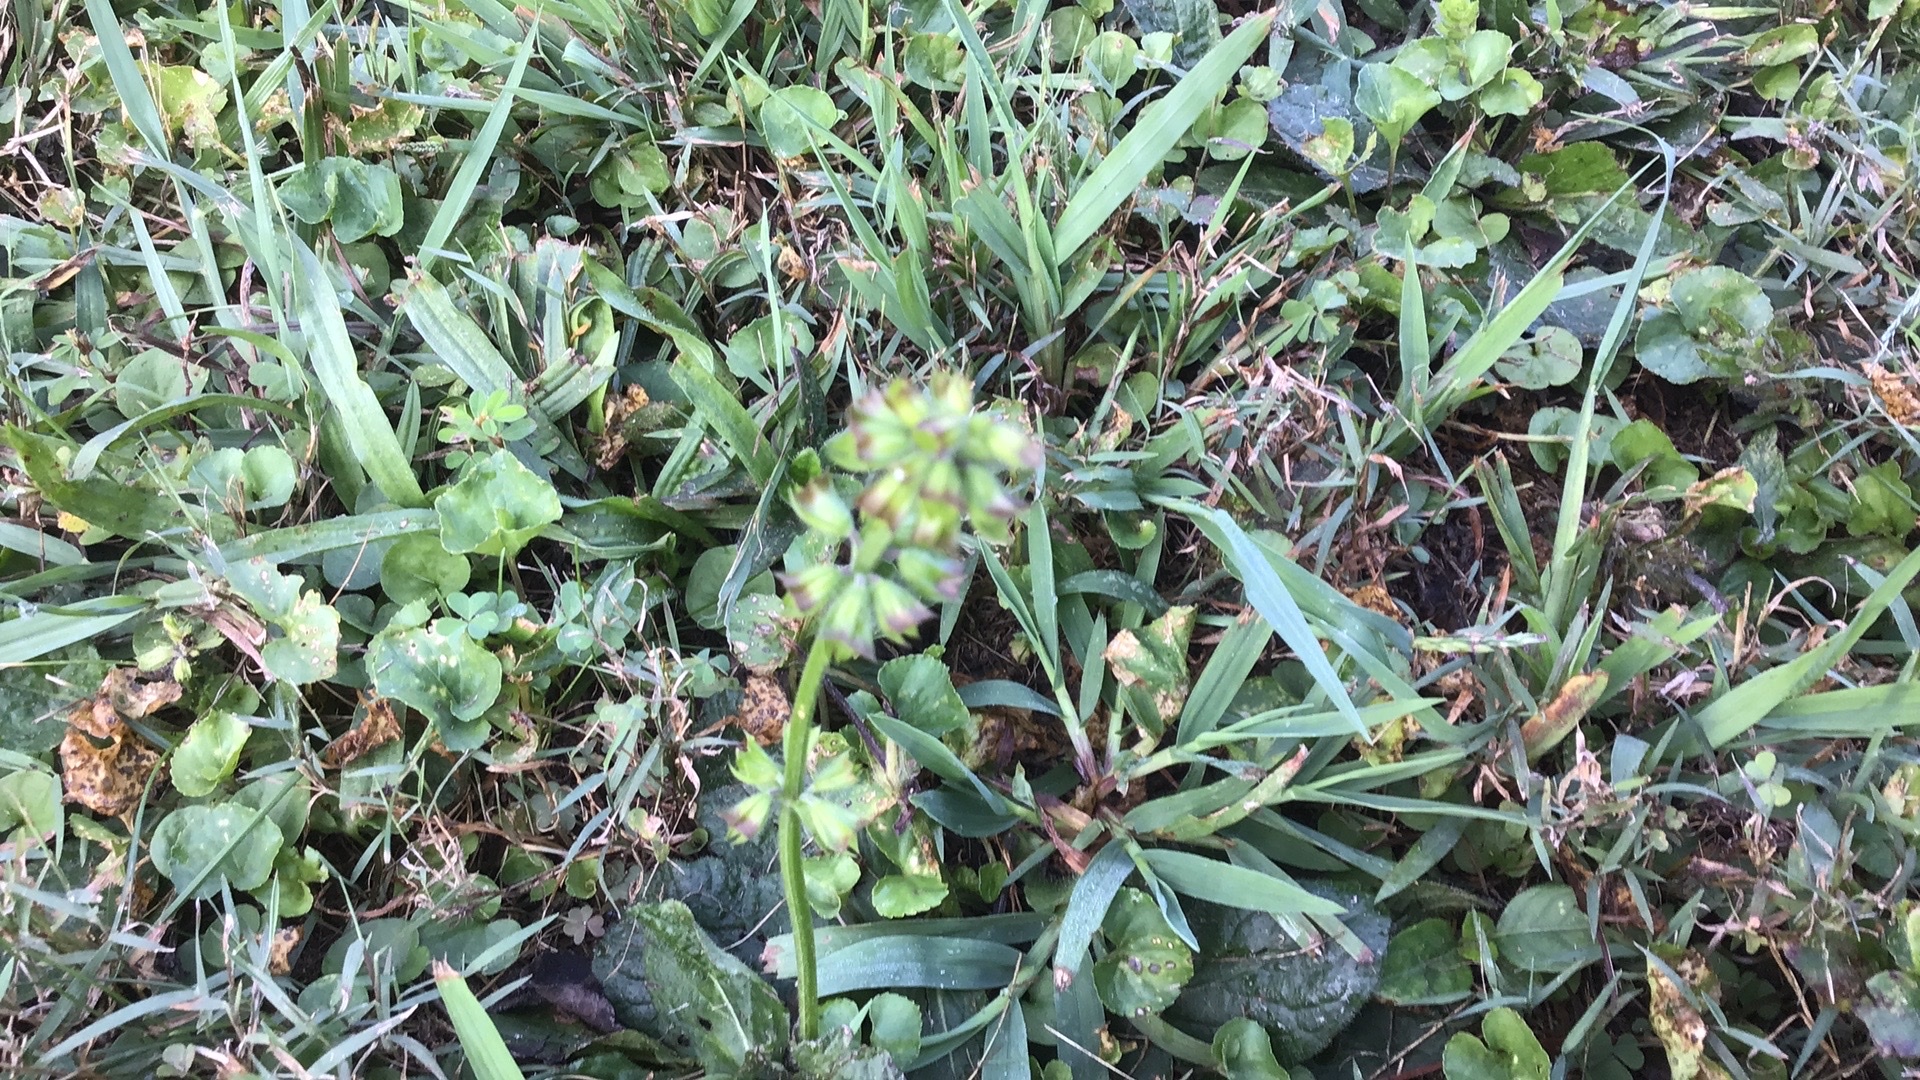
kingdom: Plantae
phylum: Tracheophyta
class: Magnoliopsida
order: Lamiales
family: Lamiaceae
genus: Salvia
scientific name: Salvia lyrata
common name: Cancerweed
